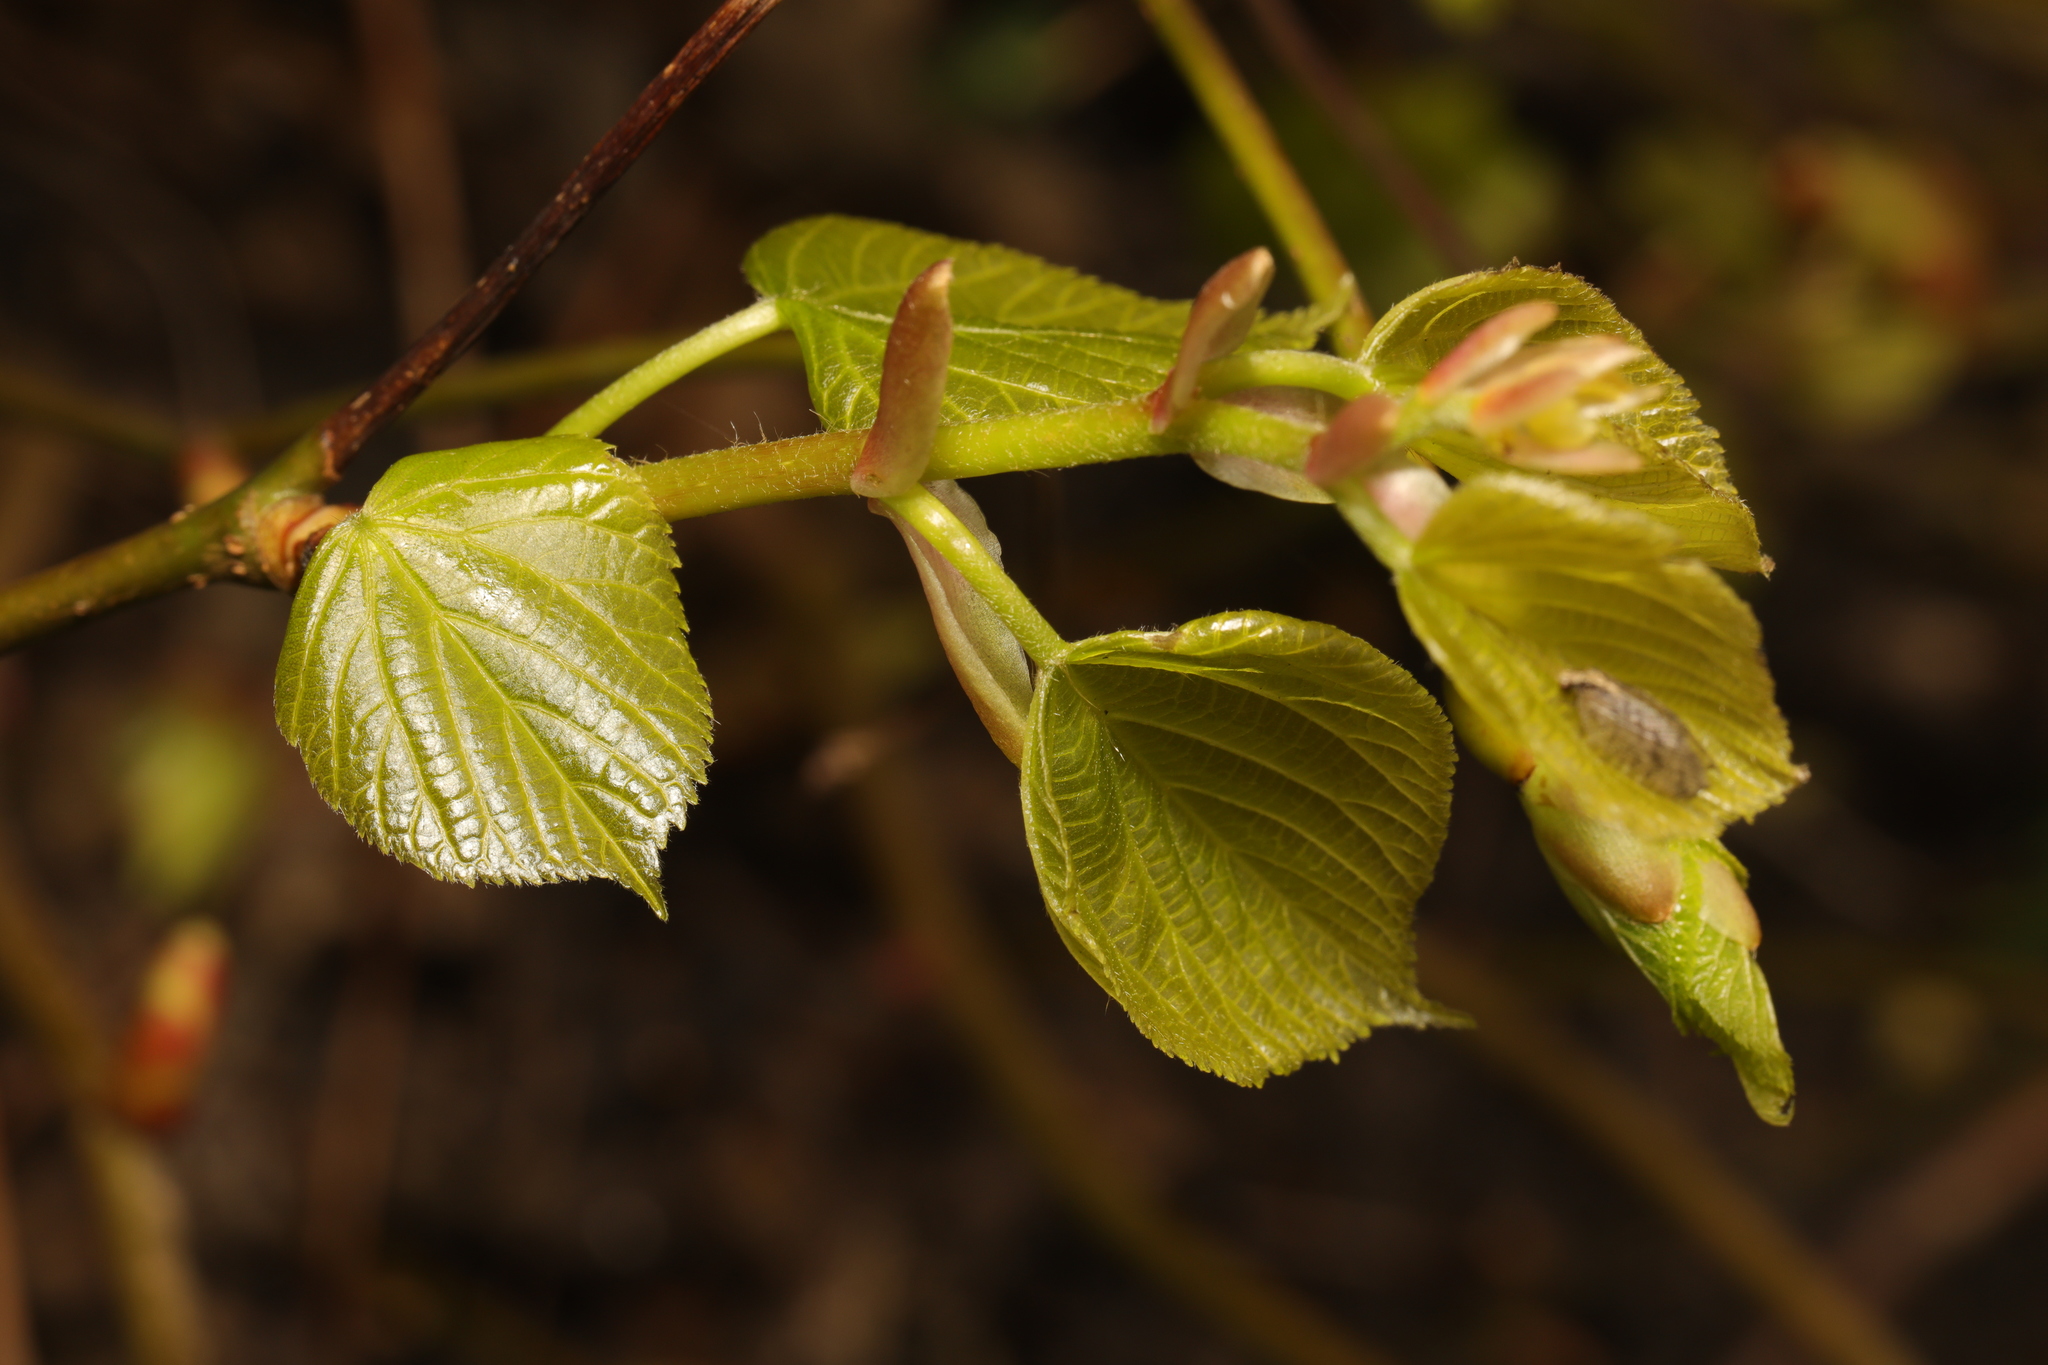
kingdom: Plantae
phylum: Tracheophyta
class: Magnoliopsida
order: Malvales
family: Malvaceae
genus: Tilia
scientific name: Tilia europaea
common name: European linden
